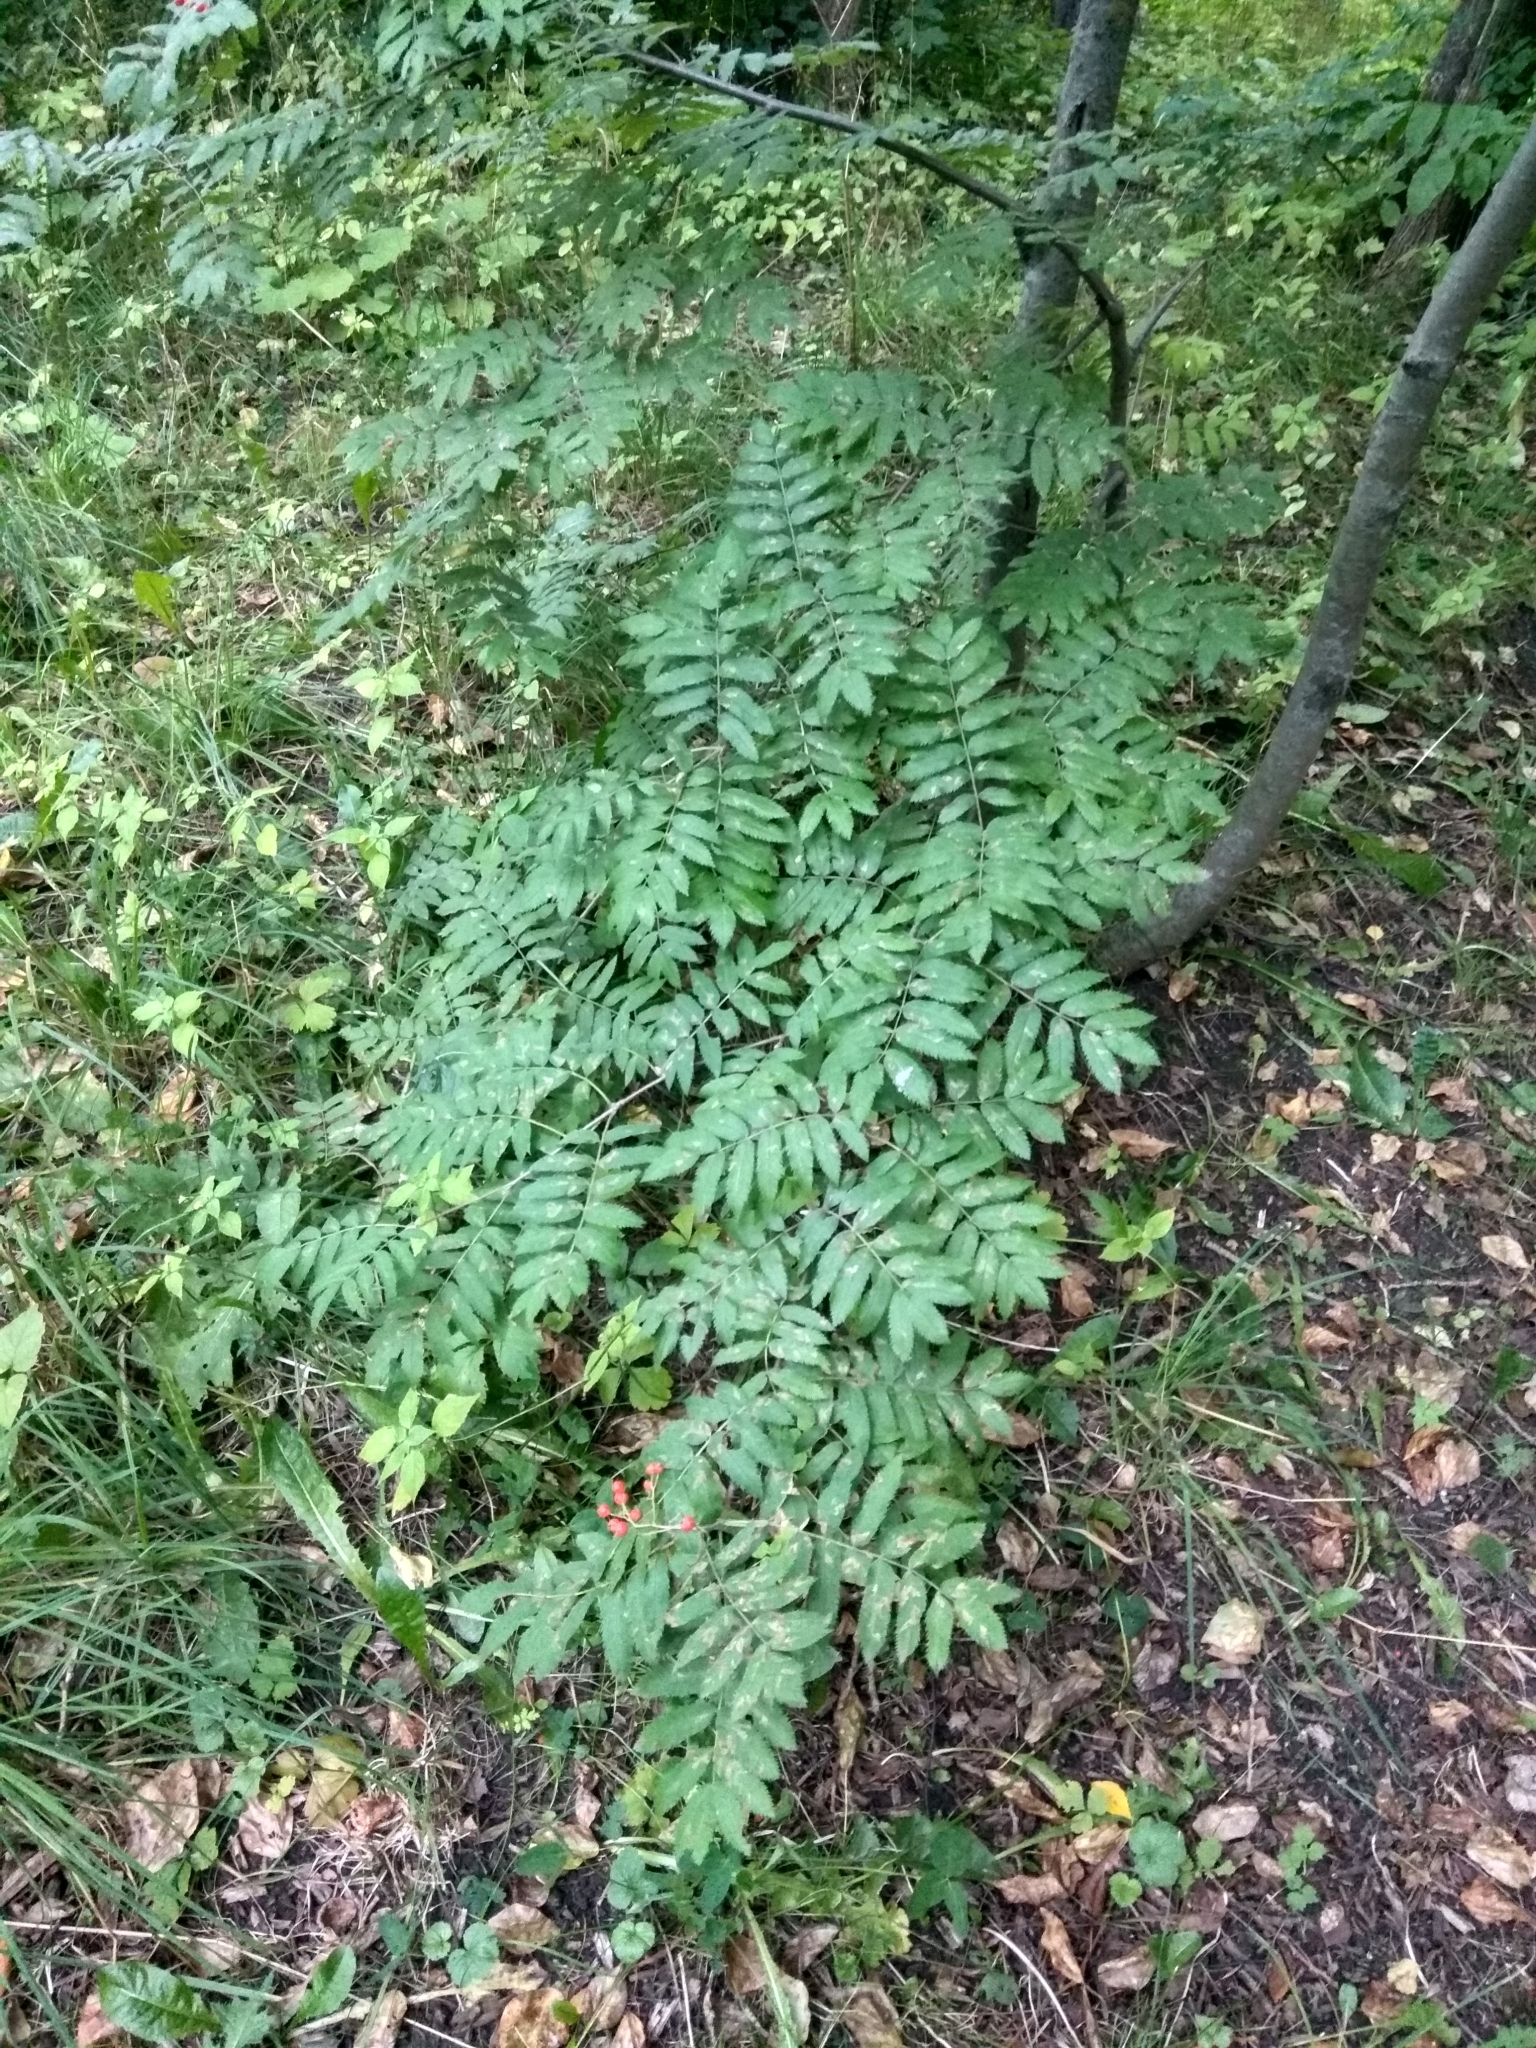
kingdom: Plantae
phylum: Tracheophyta
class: Magnoliopsida
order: Rosales
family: Rosaceae
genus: Sorbus
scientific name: Sorbus aucuparia
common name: Rowan
